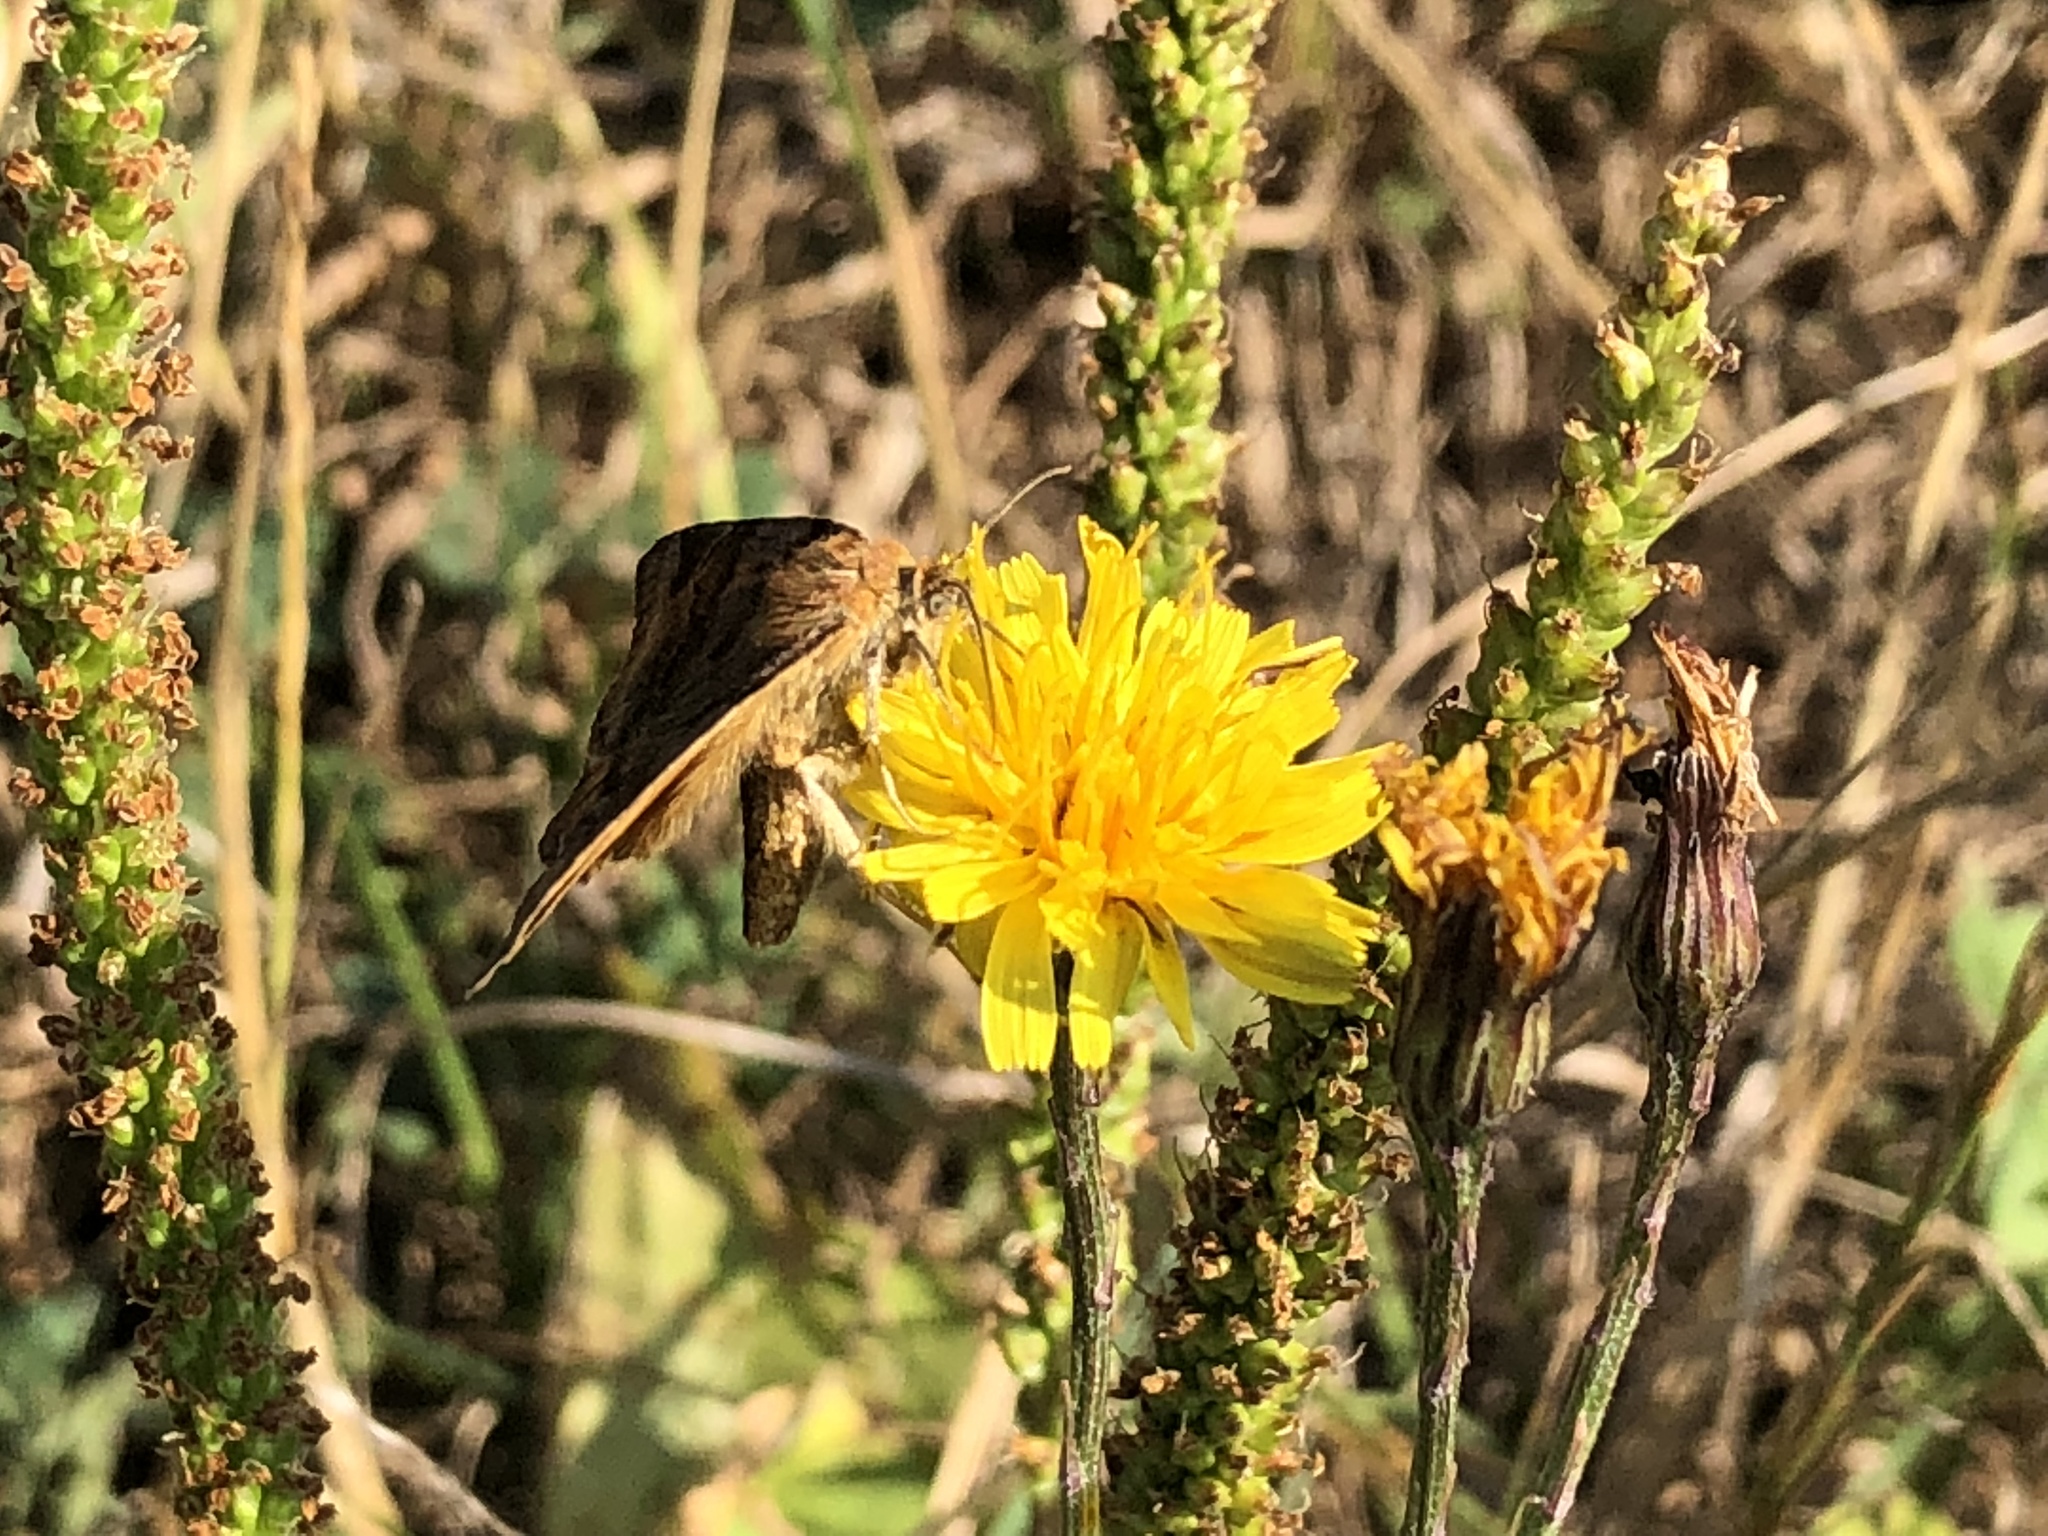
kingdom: Animalia
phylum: Arthropoda
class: Insecta
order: Lepidoptera
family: Erebidae
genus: Euclidia
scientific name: Euclidia glyphica
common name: Burnet companion
